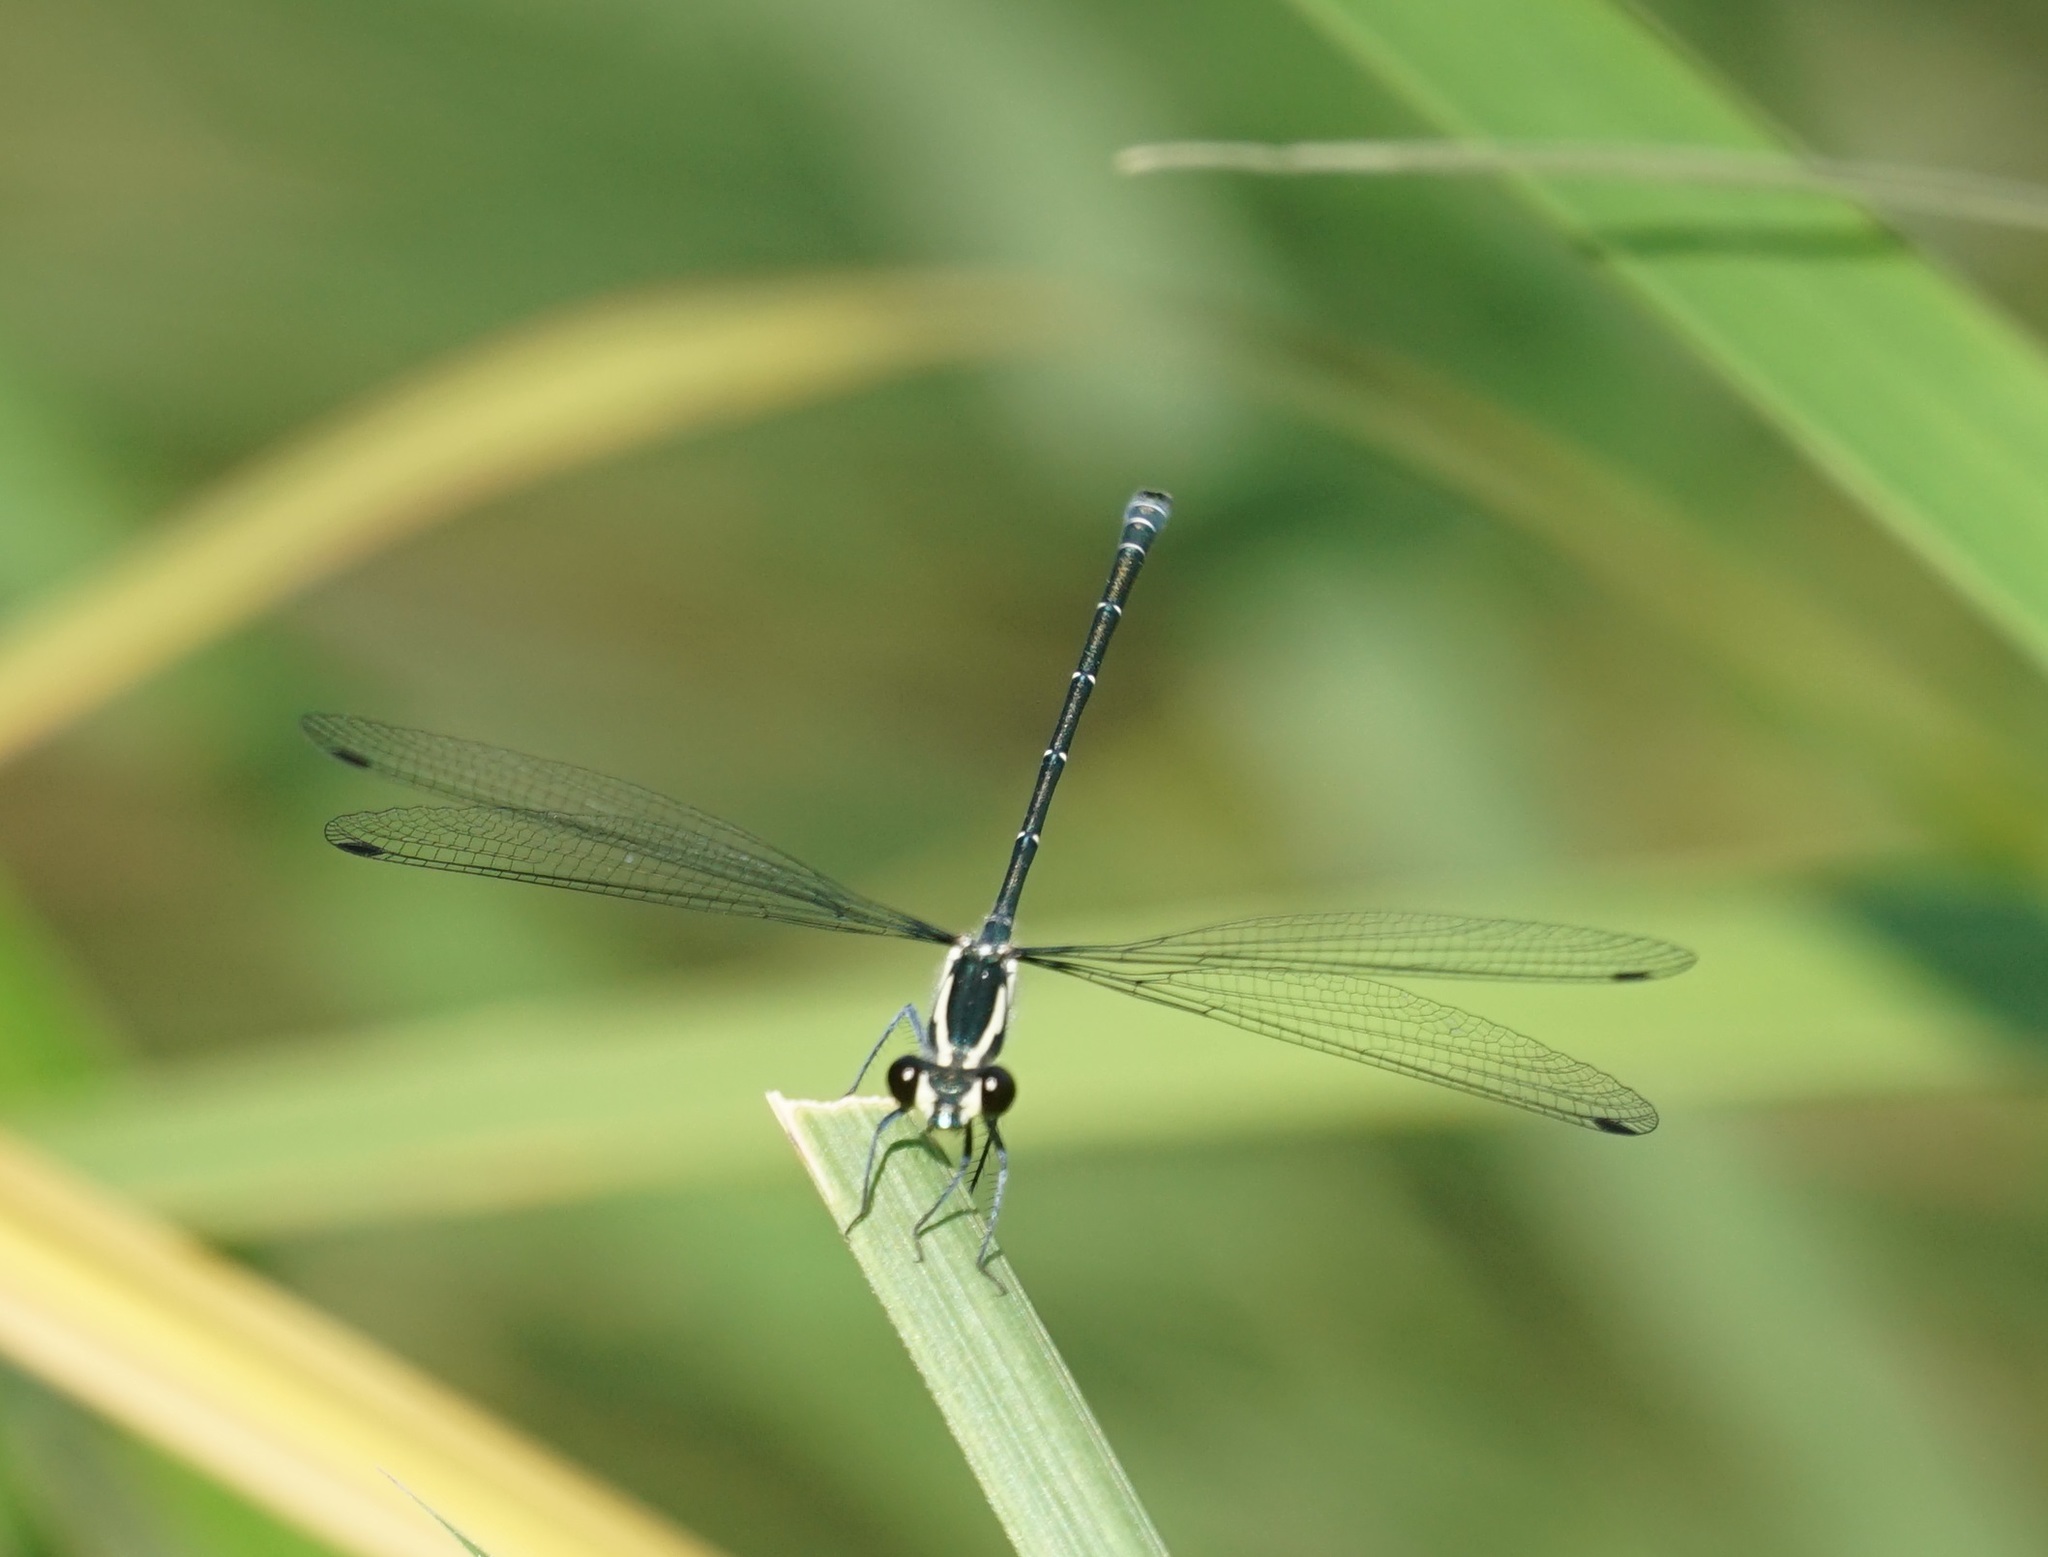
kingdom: Animalia
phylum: Arthropoda
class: Insecta
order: Odonata
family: Argiolestidae
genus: Austroargiolestes
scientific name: Austroargiolestes icteromelas
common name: Common flatwing
